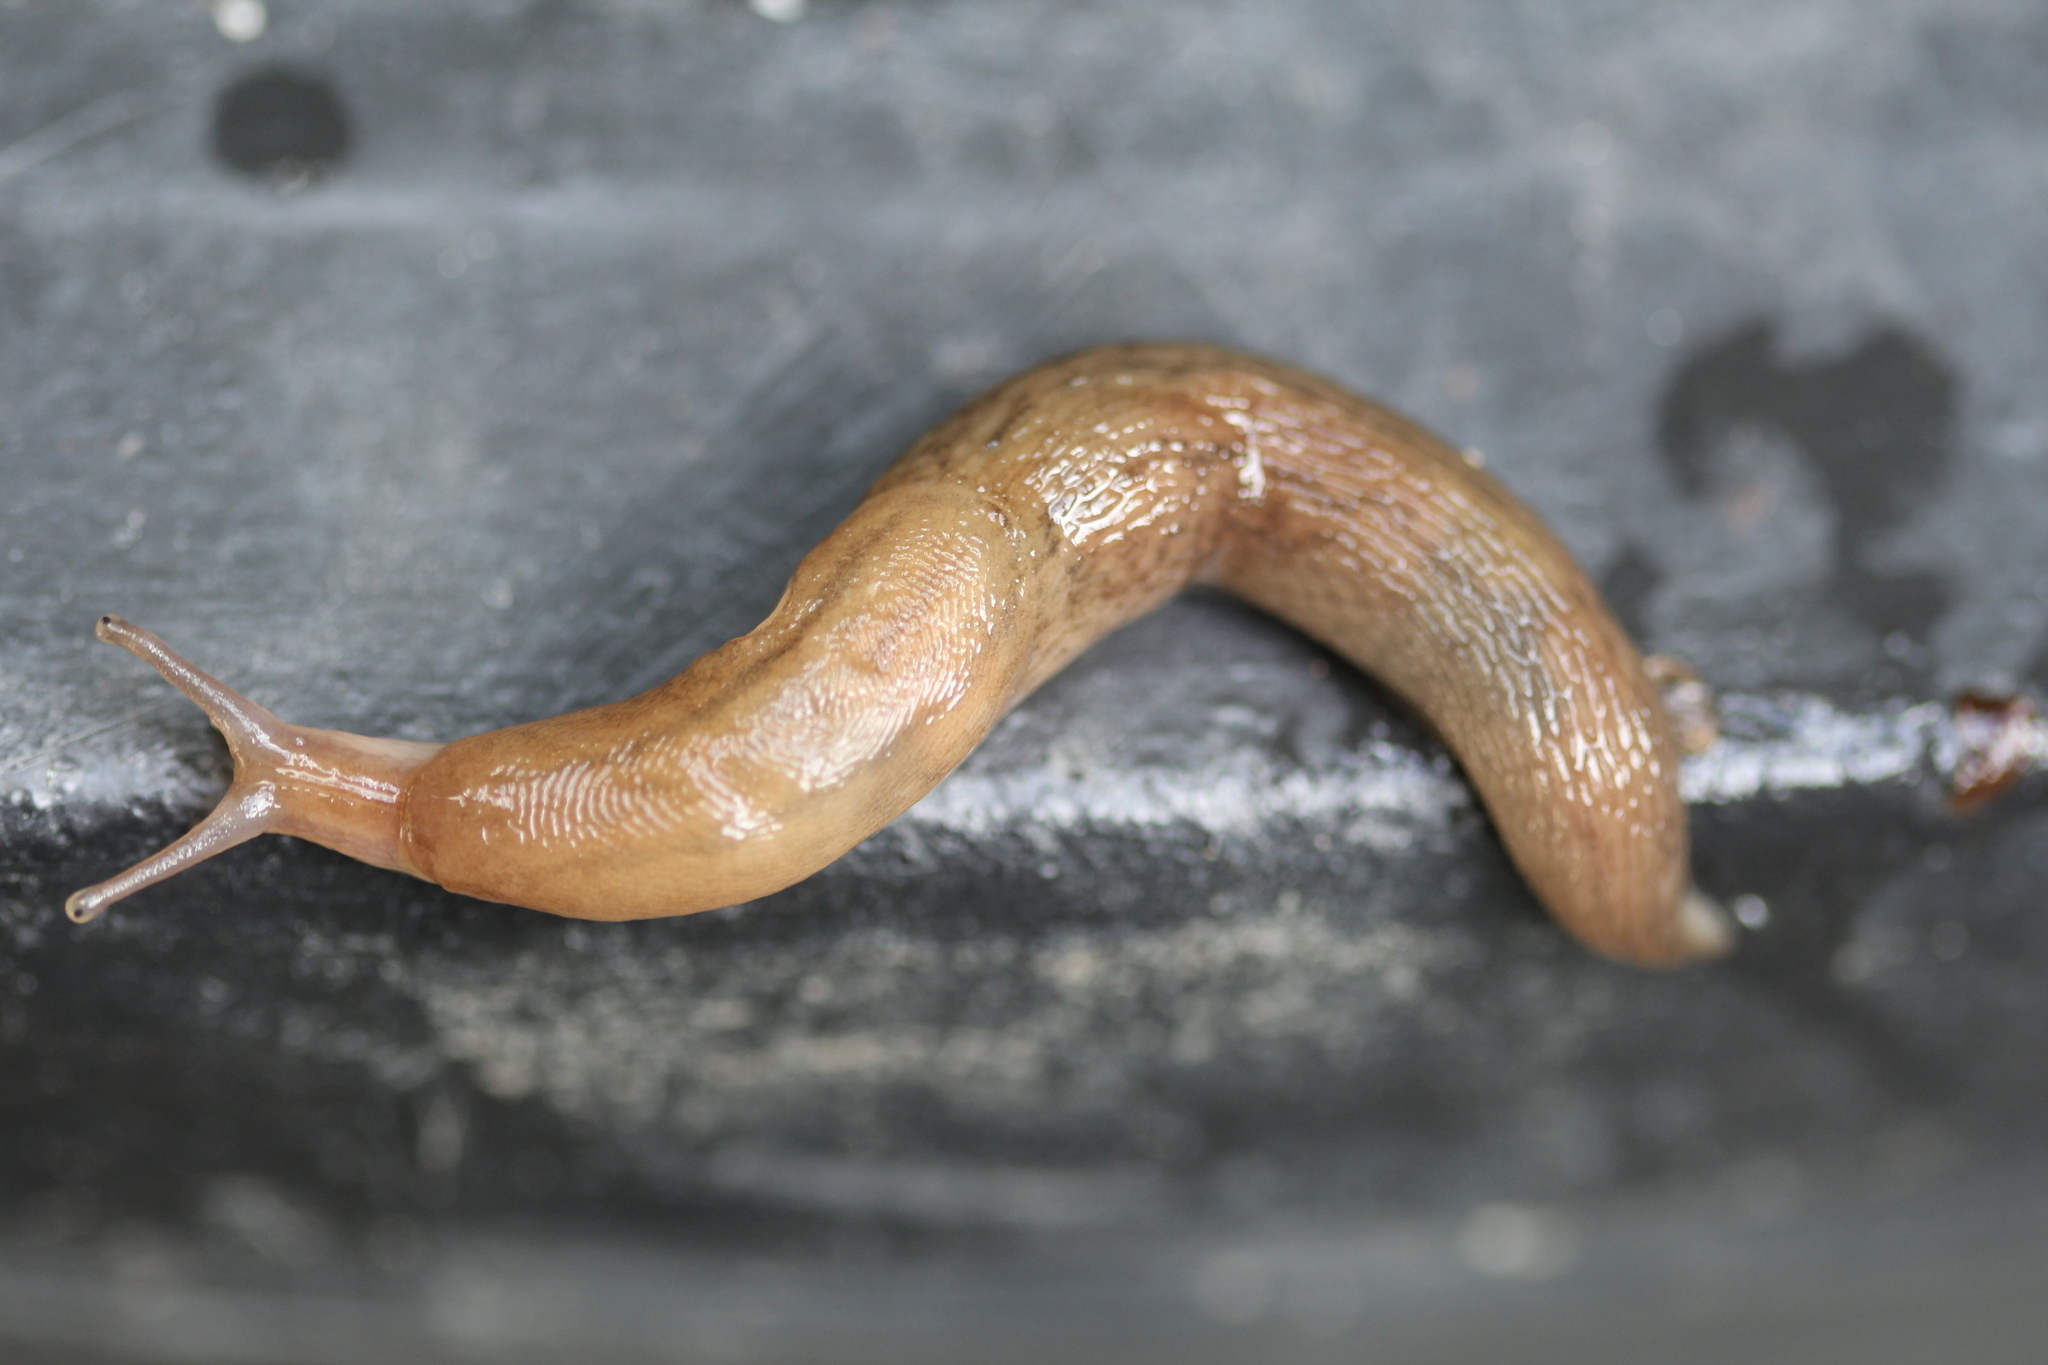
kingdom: Animalia
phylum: Mollusca
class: Gastropoda
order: Stylommatophora
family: Limacidae
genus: Ambigolimax
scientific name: Ambigolimax valentianus
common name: Greenhouse slug
